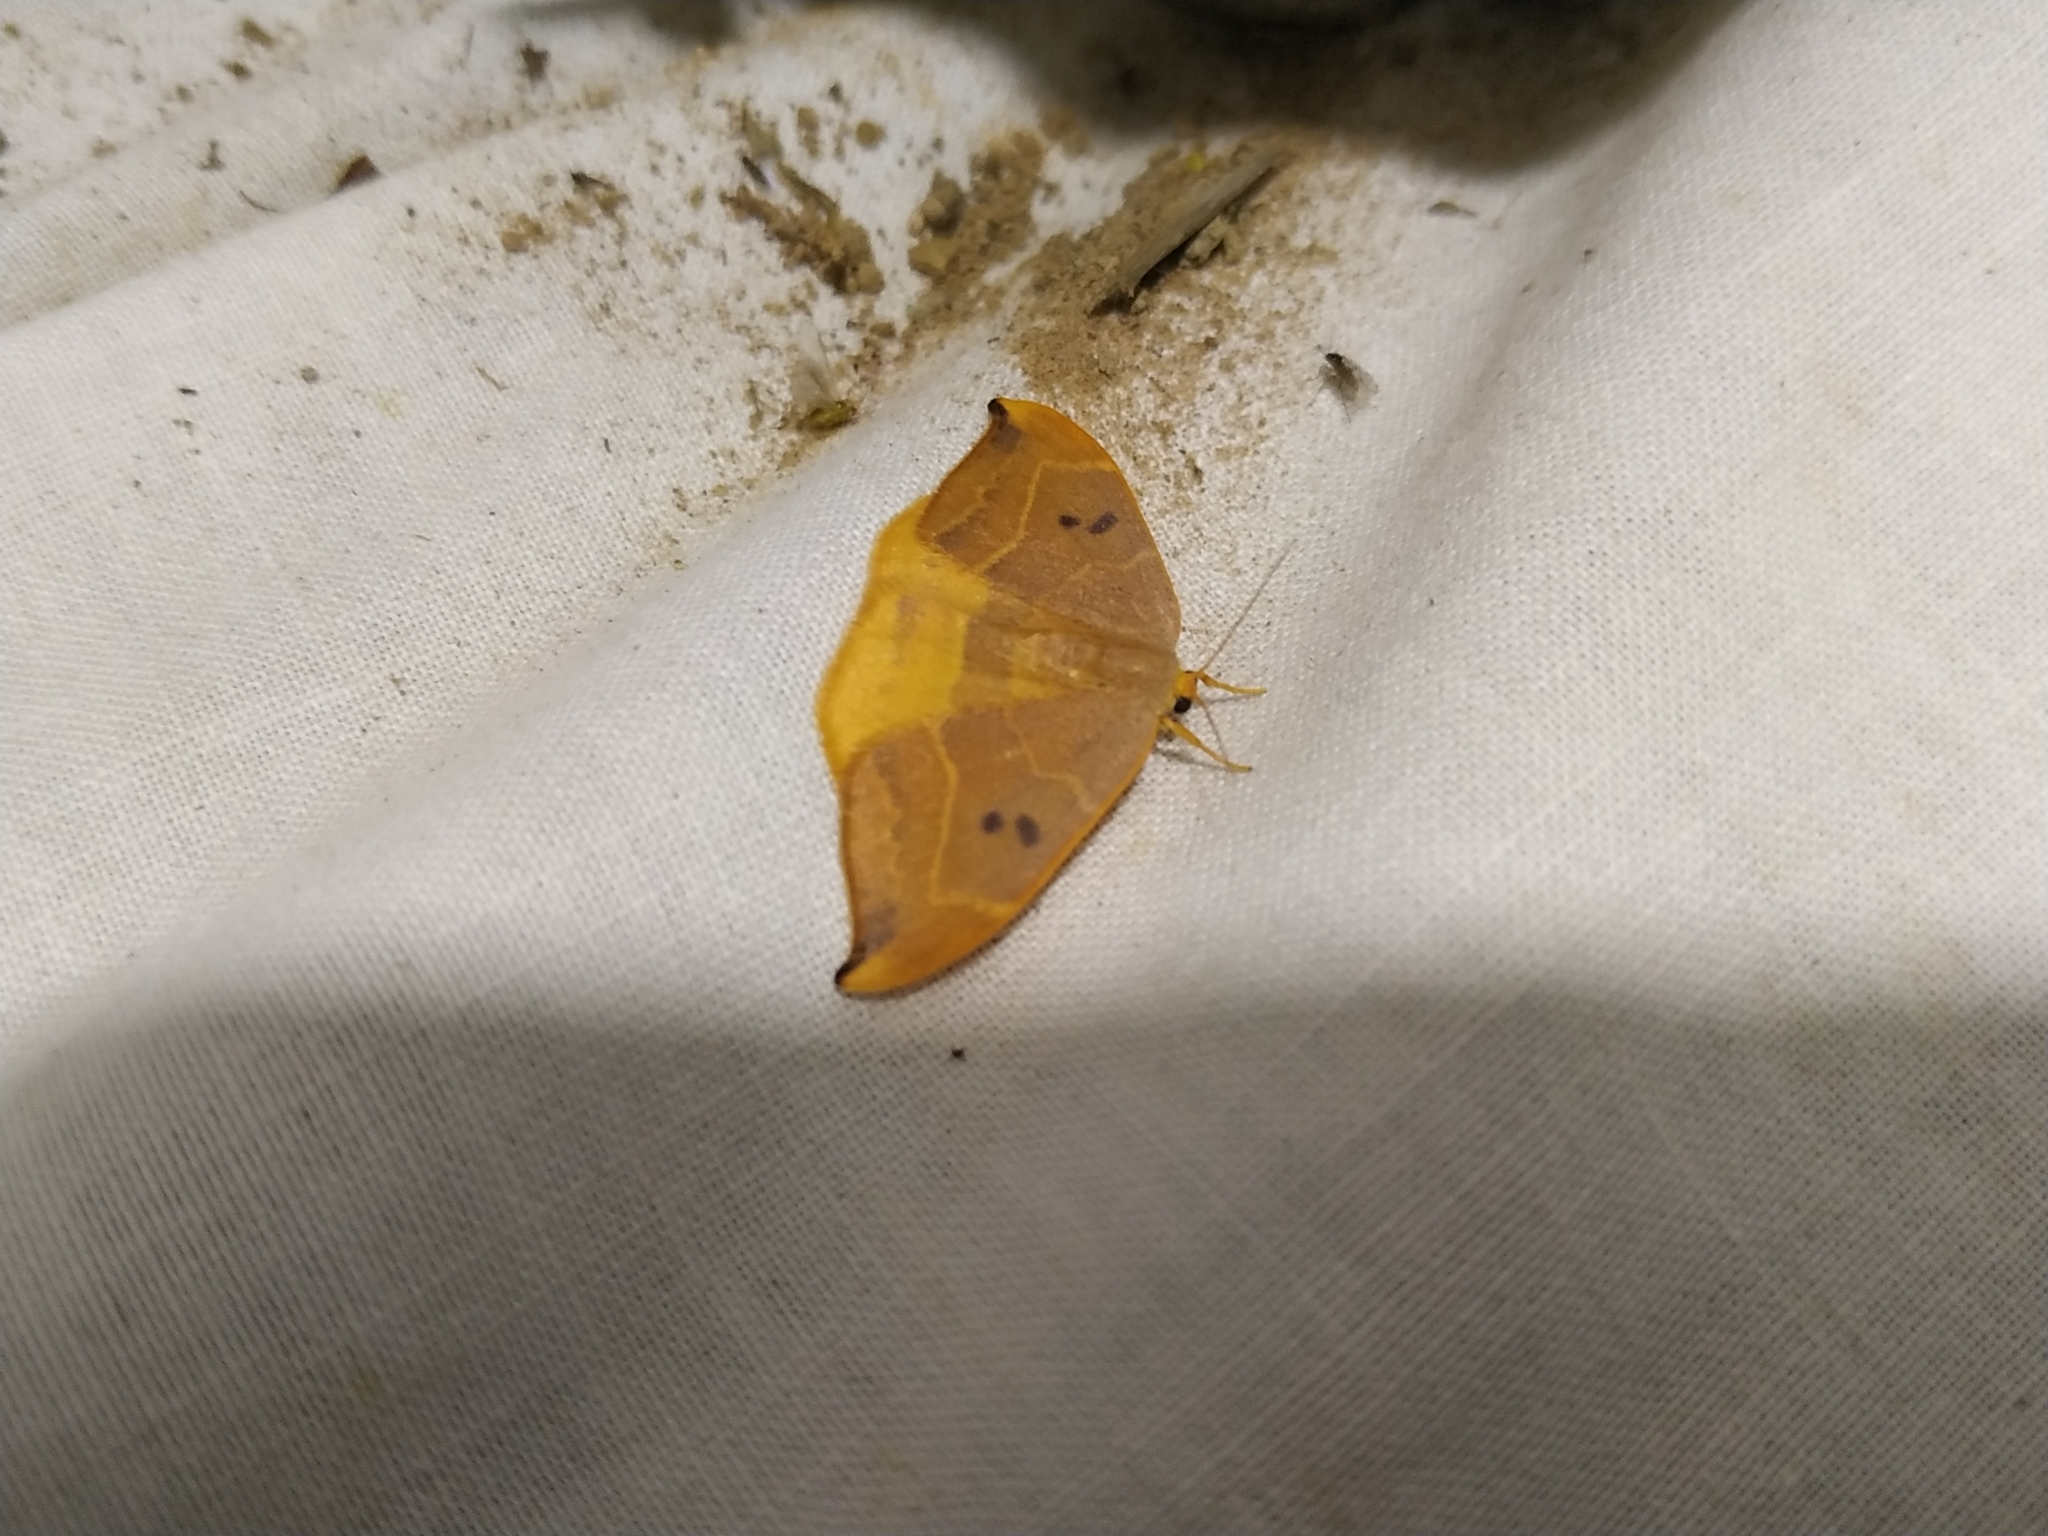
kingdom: Animalia
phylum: Arthropoda
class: Insecta
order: Lepidoptera
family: Drepanidae
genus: Watsonalla
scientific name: Watsonalla binaria
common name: Oak hook-tip
